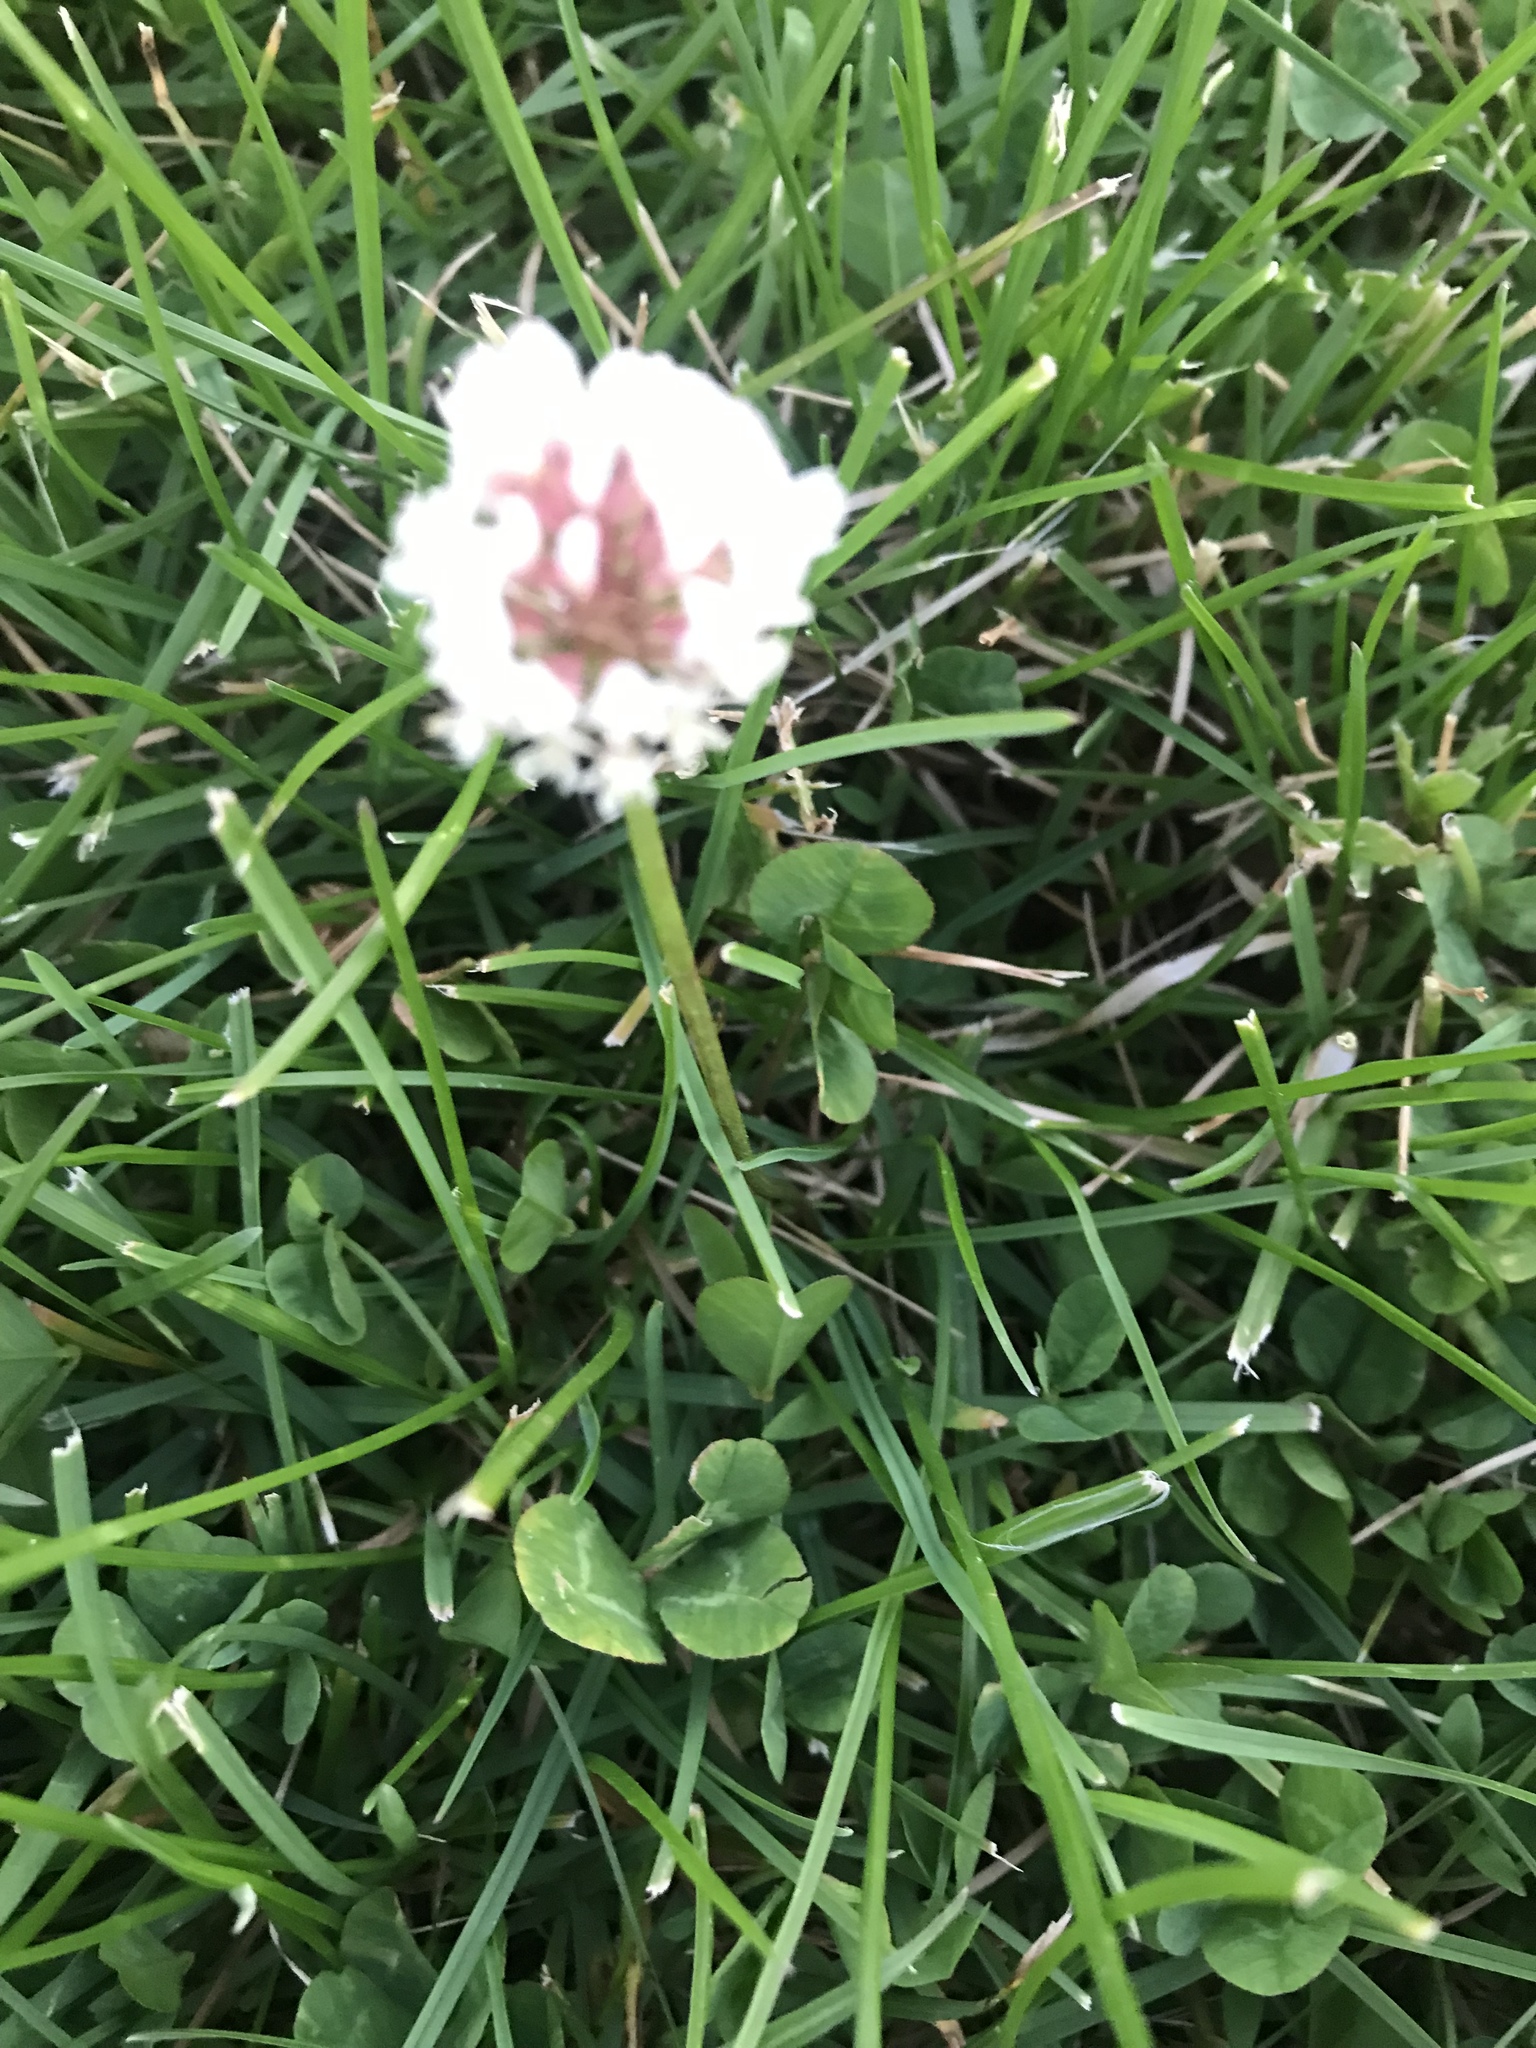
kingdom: Plantae
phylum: Tracheophyta
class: Magnoliopsida
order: Fabales
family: Fabaceae
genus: Trifolium
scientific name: Trifolium repens
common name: White clover
